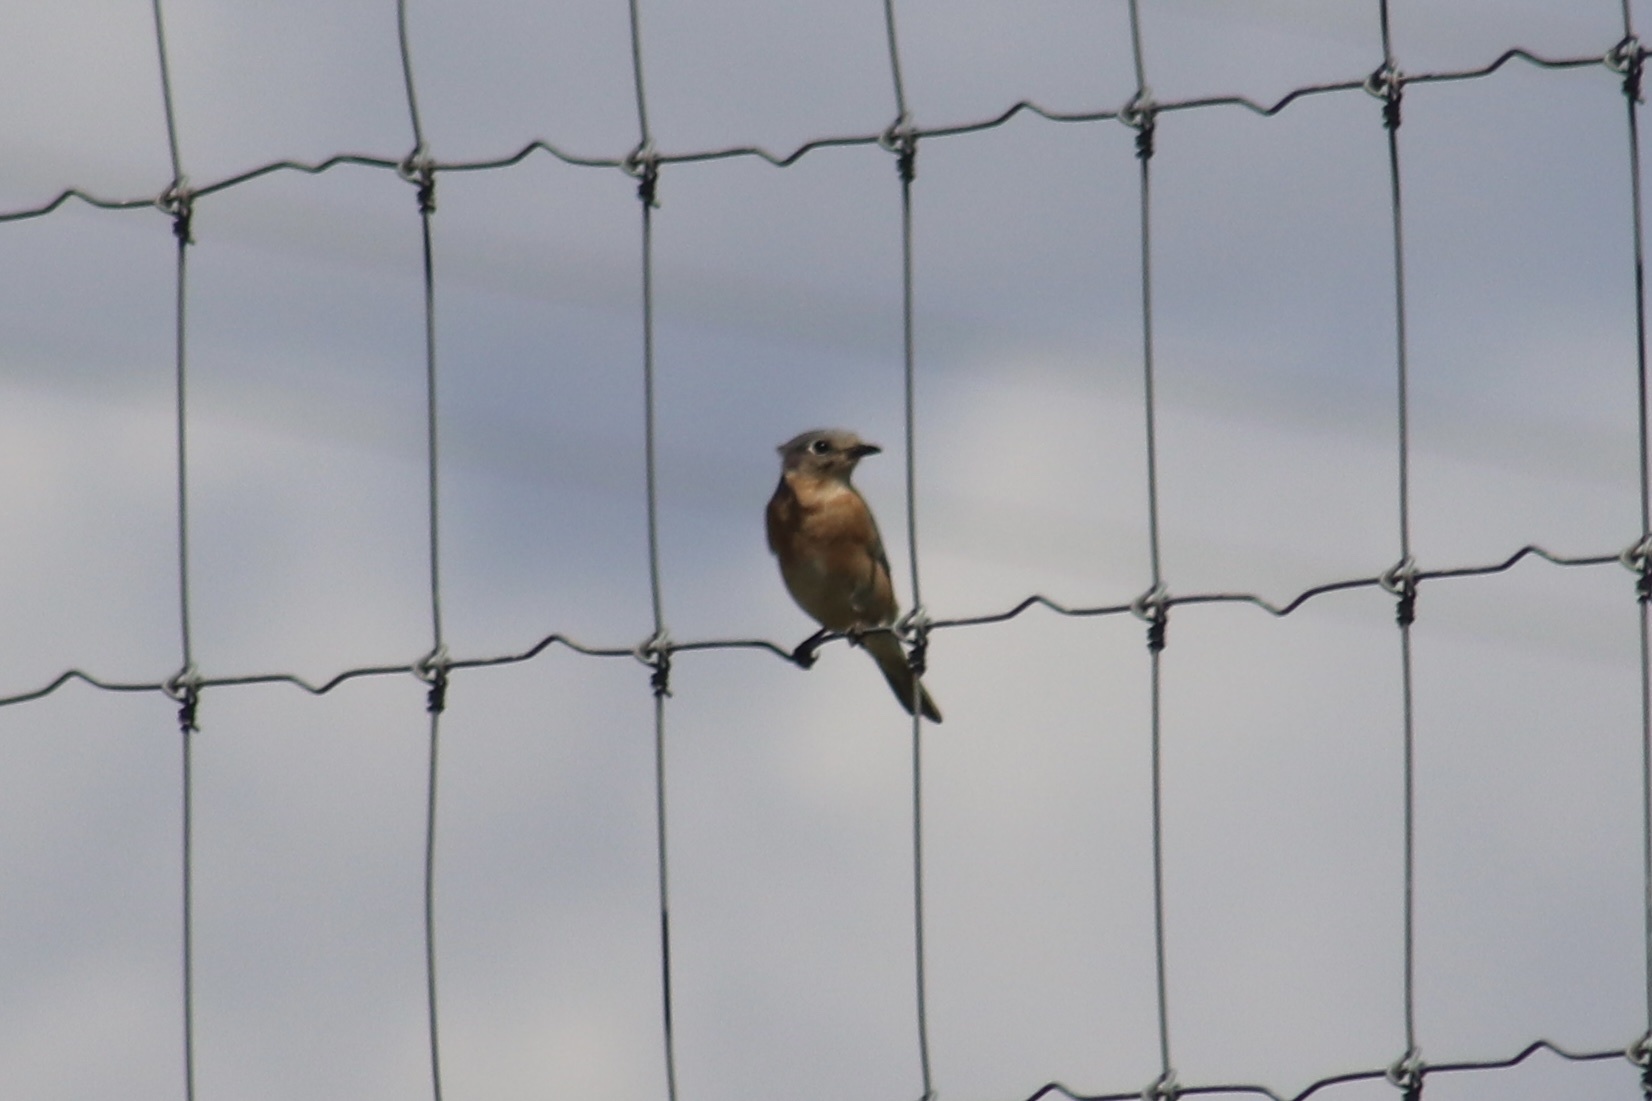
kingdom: Animalia
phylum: Chordata
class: Aves
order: Passeriformes
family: Turdidae
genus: Sialia
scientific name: Sialia sialis
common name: Eastern bluebird
